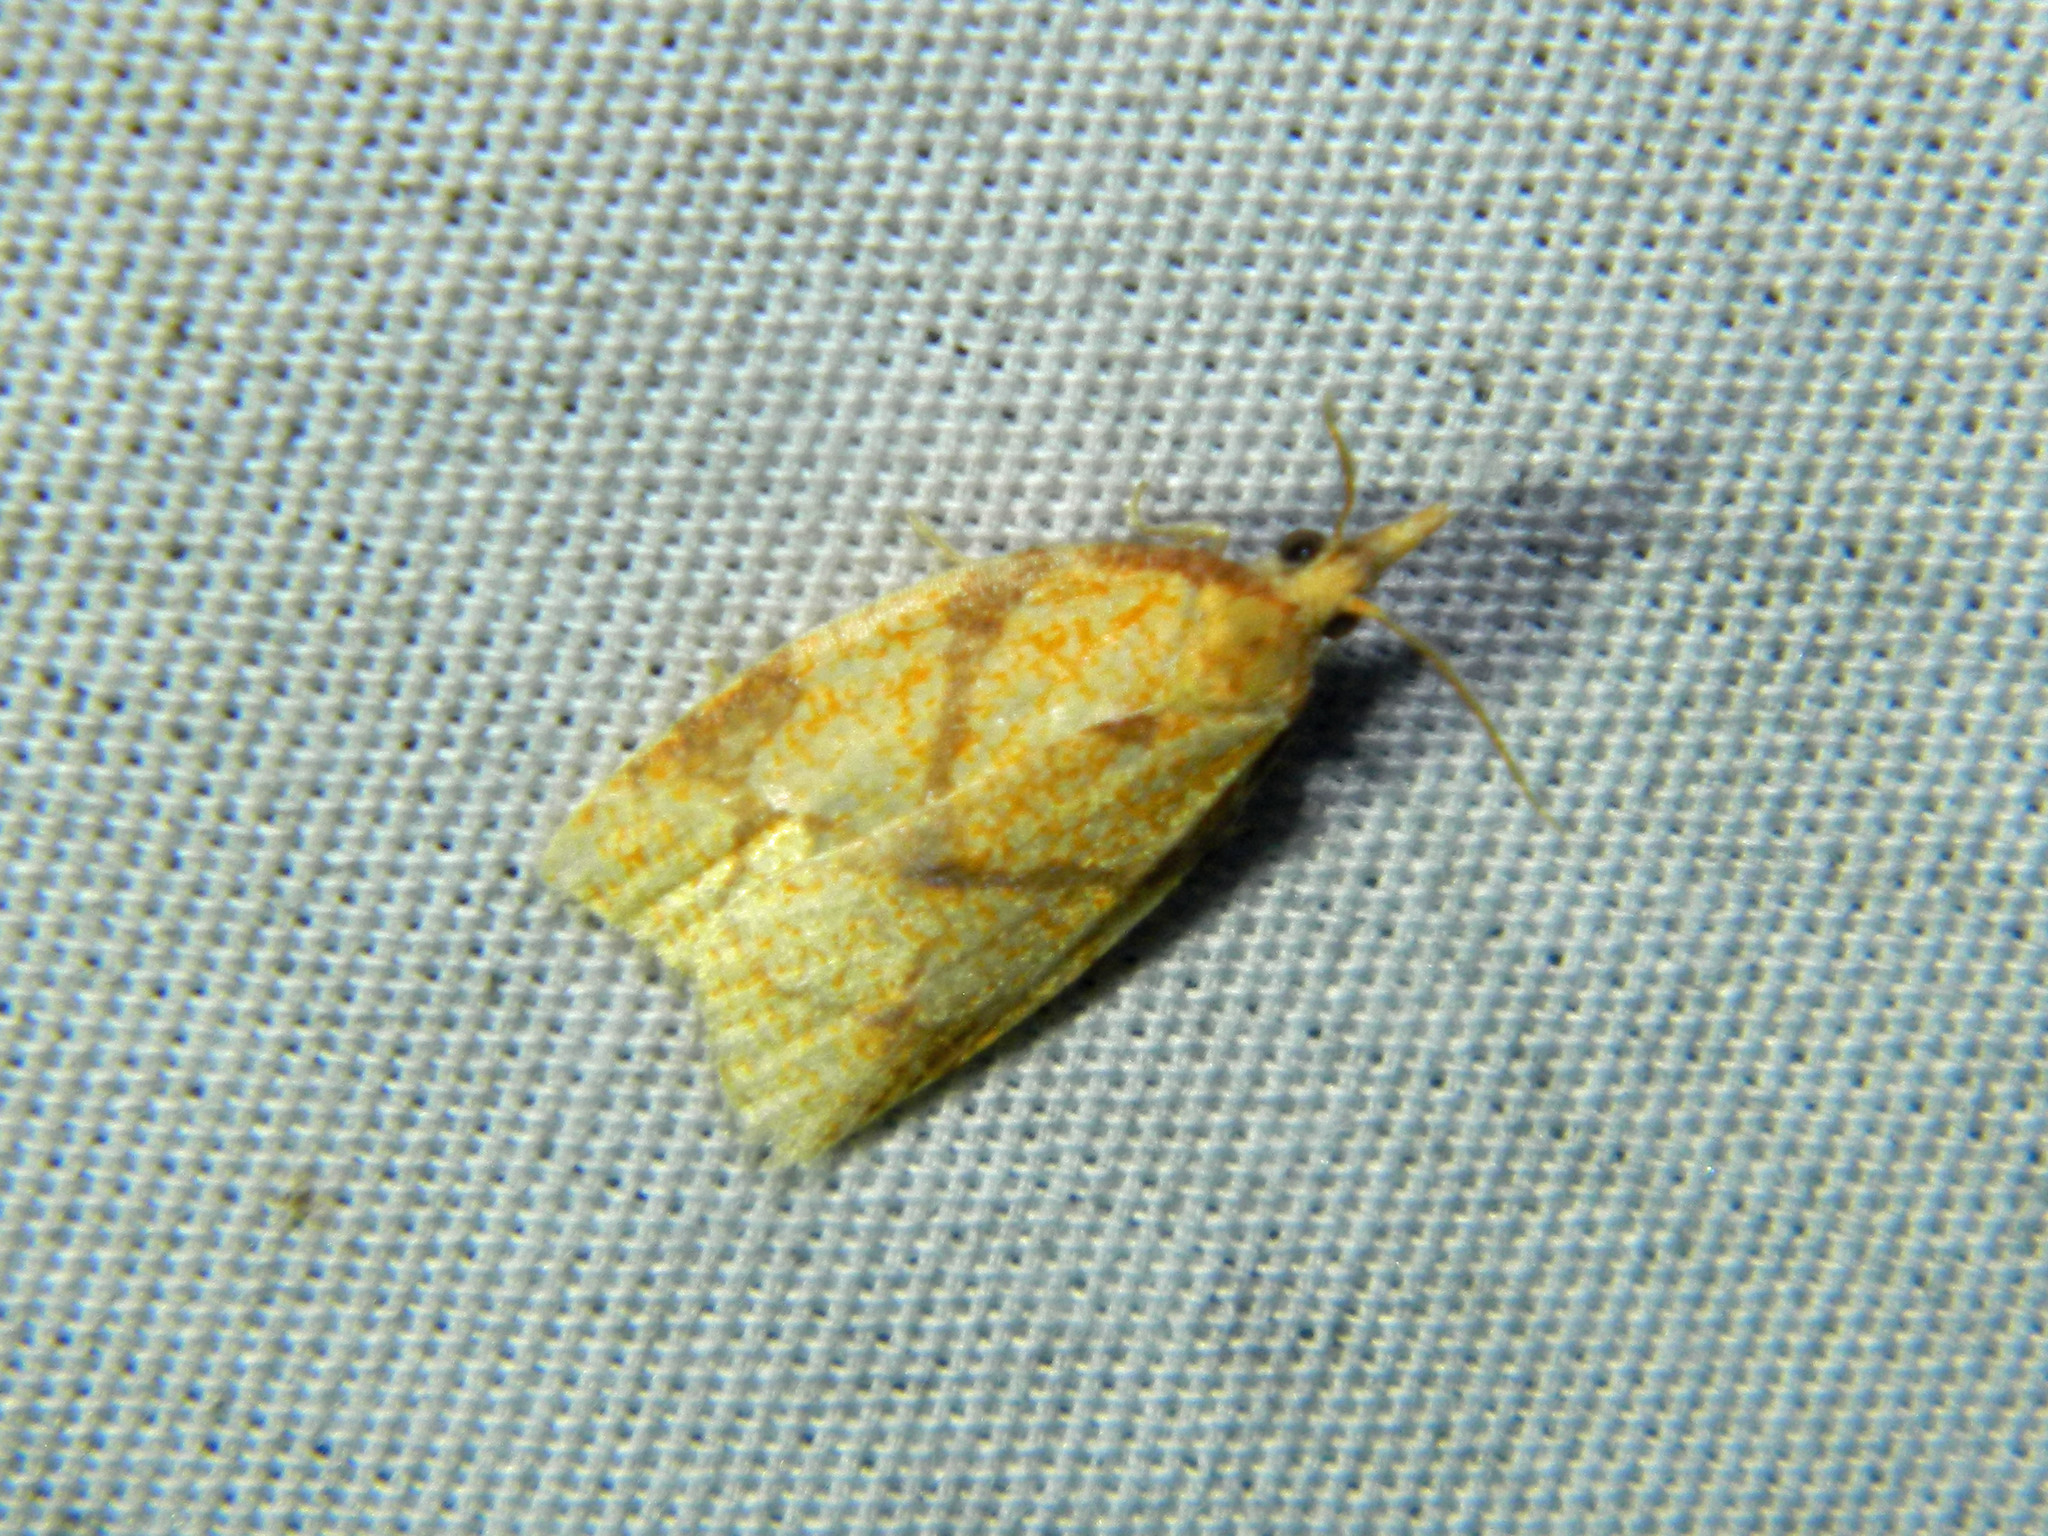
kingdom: Animalia
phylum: Arthropoda
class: Insecta
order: Lepidoptera
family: Tortricidae
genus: Cenopis
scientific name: Cenopis reticulatana
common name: Reticulated fruitworm moth
